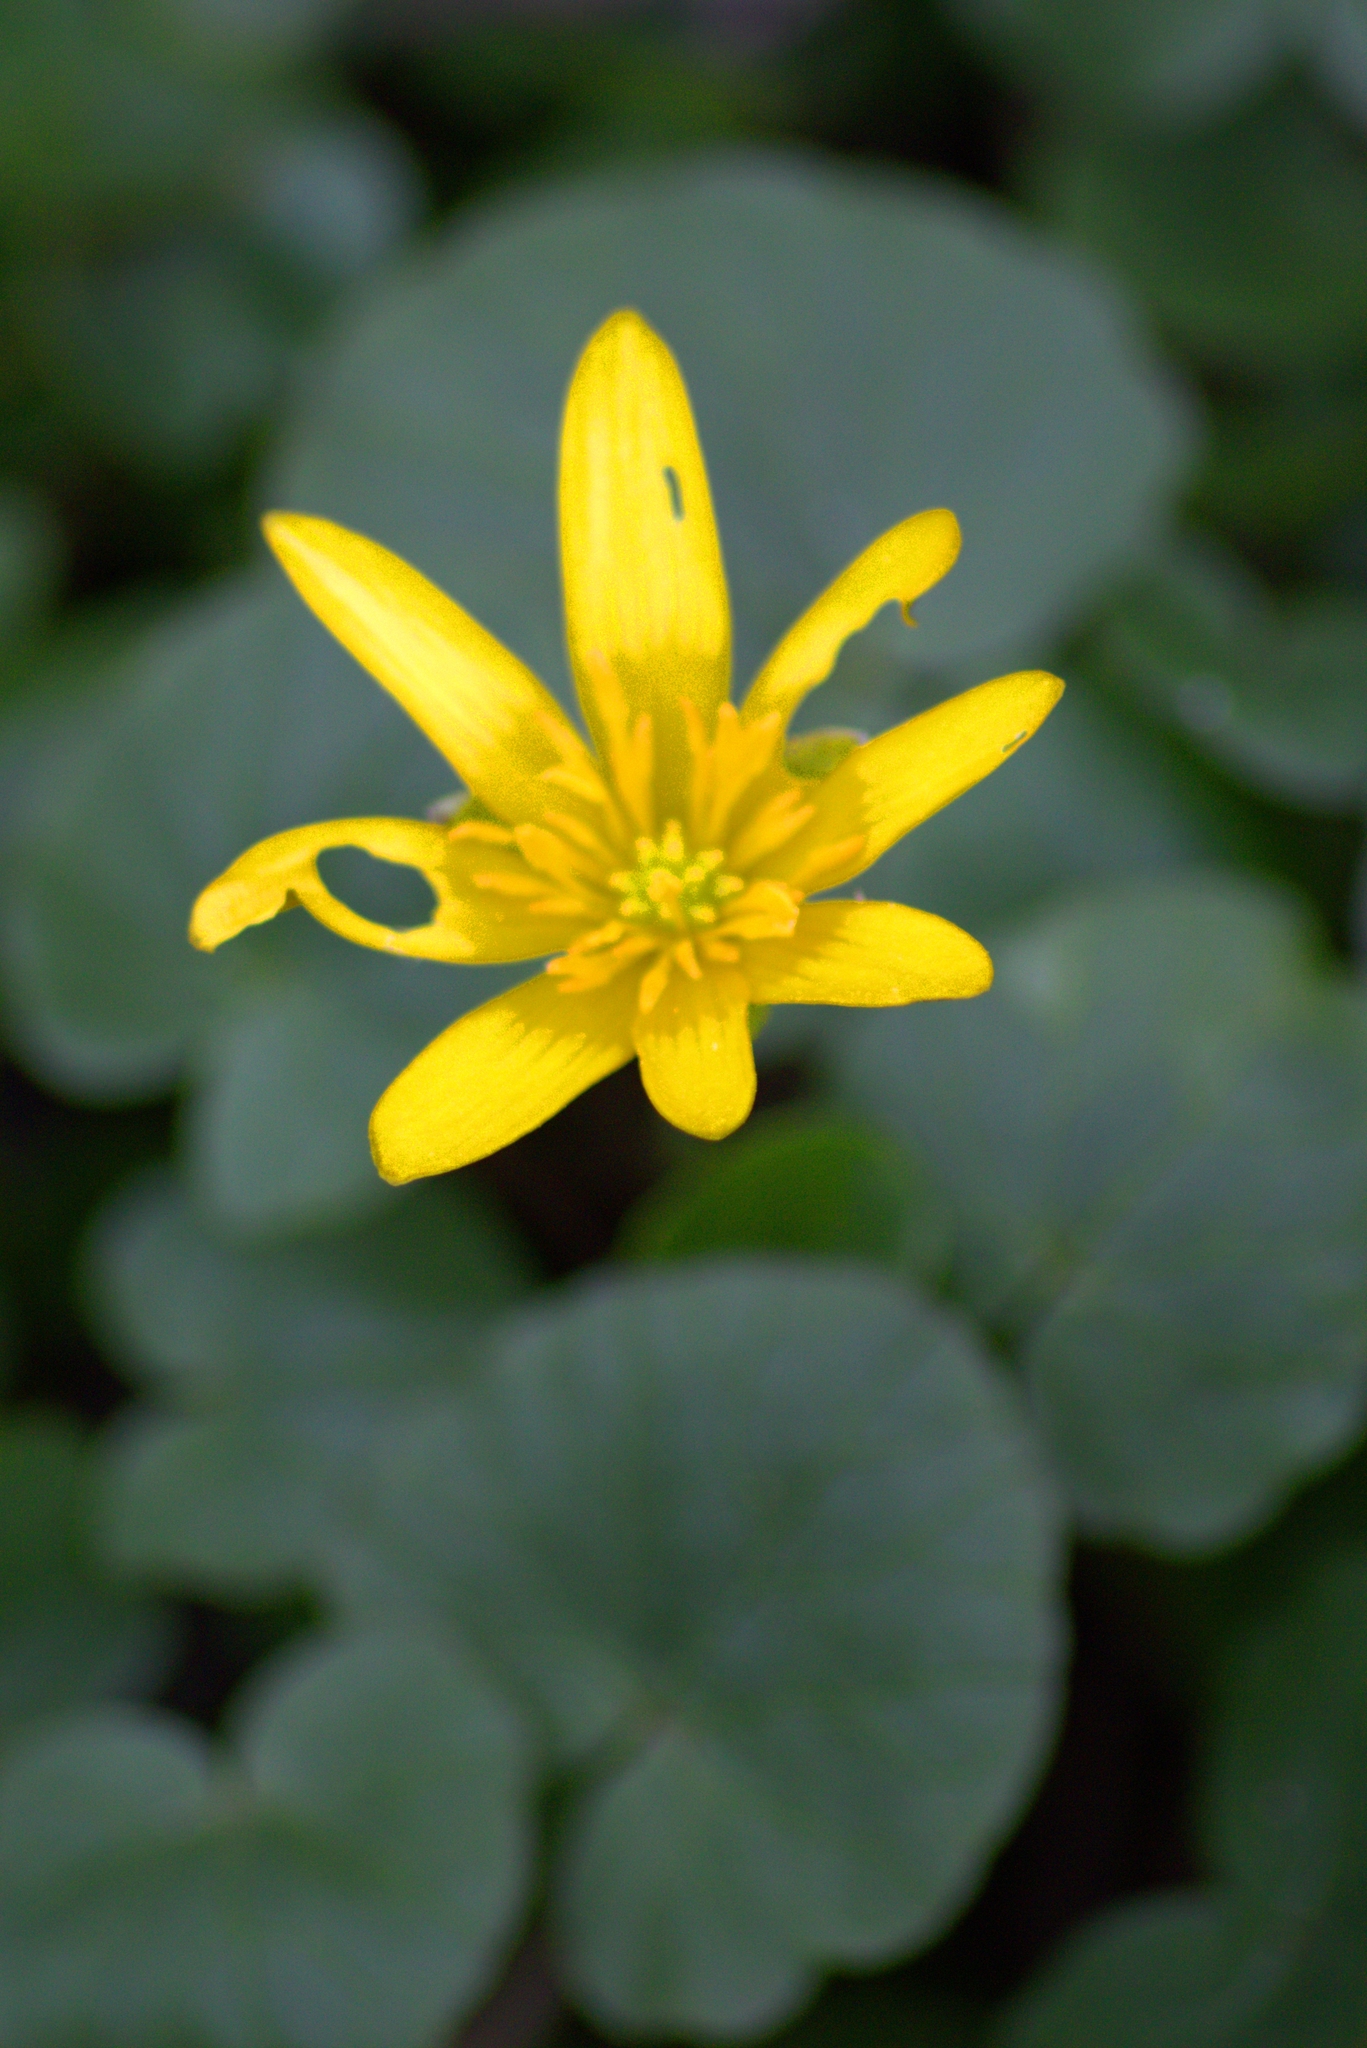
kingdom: Plantae
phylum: Tracheophyta
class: Magnoliopsida
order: Ranunculales
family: Ranunculaceae
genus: Ficaria
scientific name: Ficaria verna
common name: Lesser celandine
